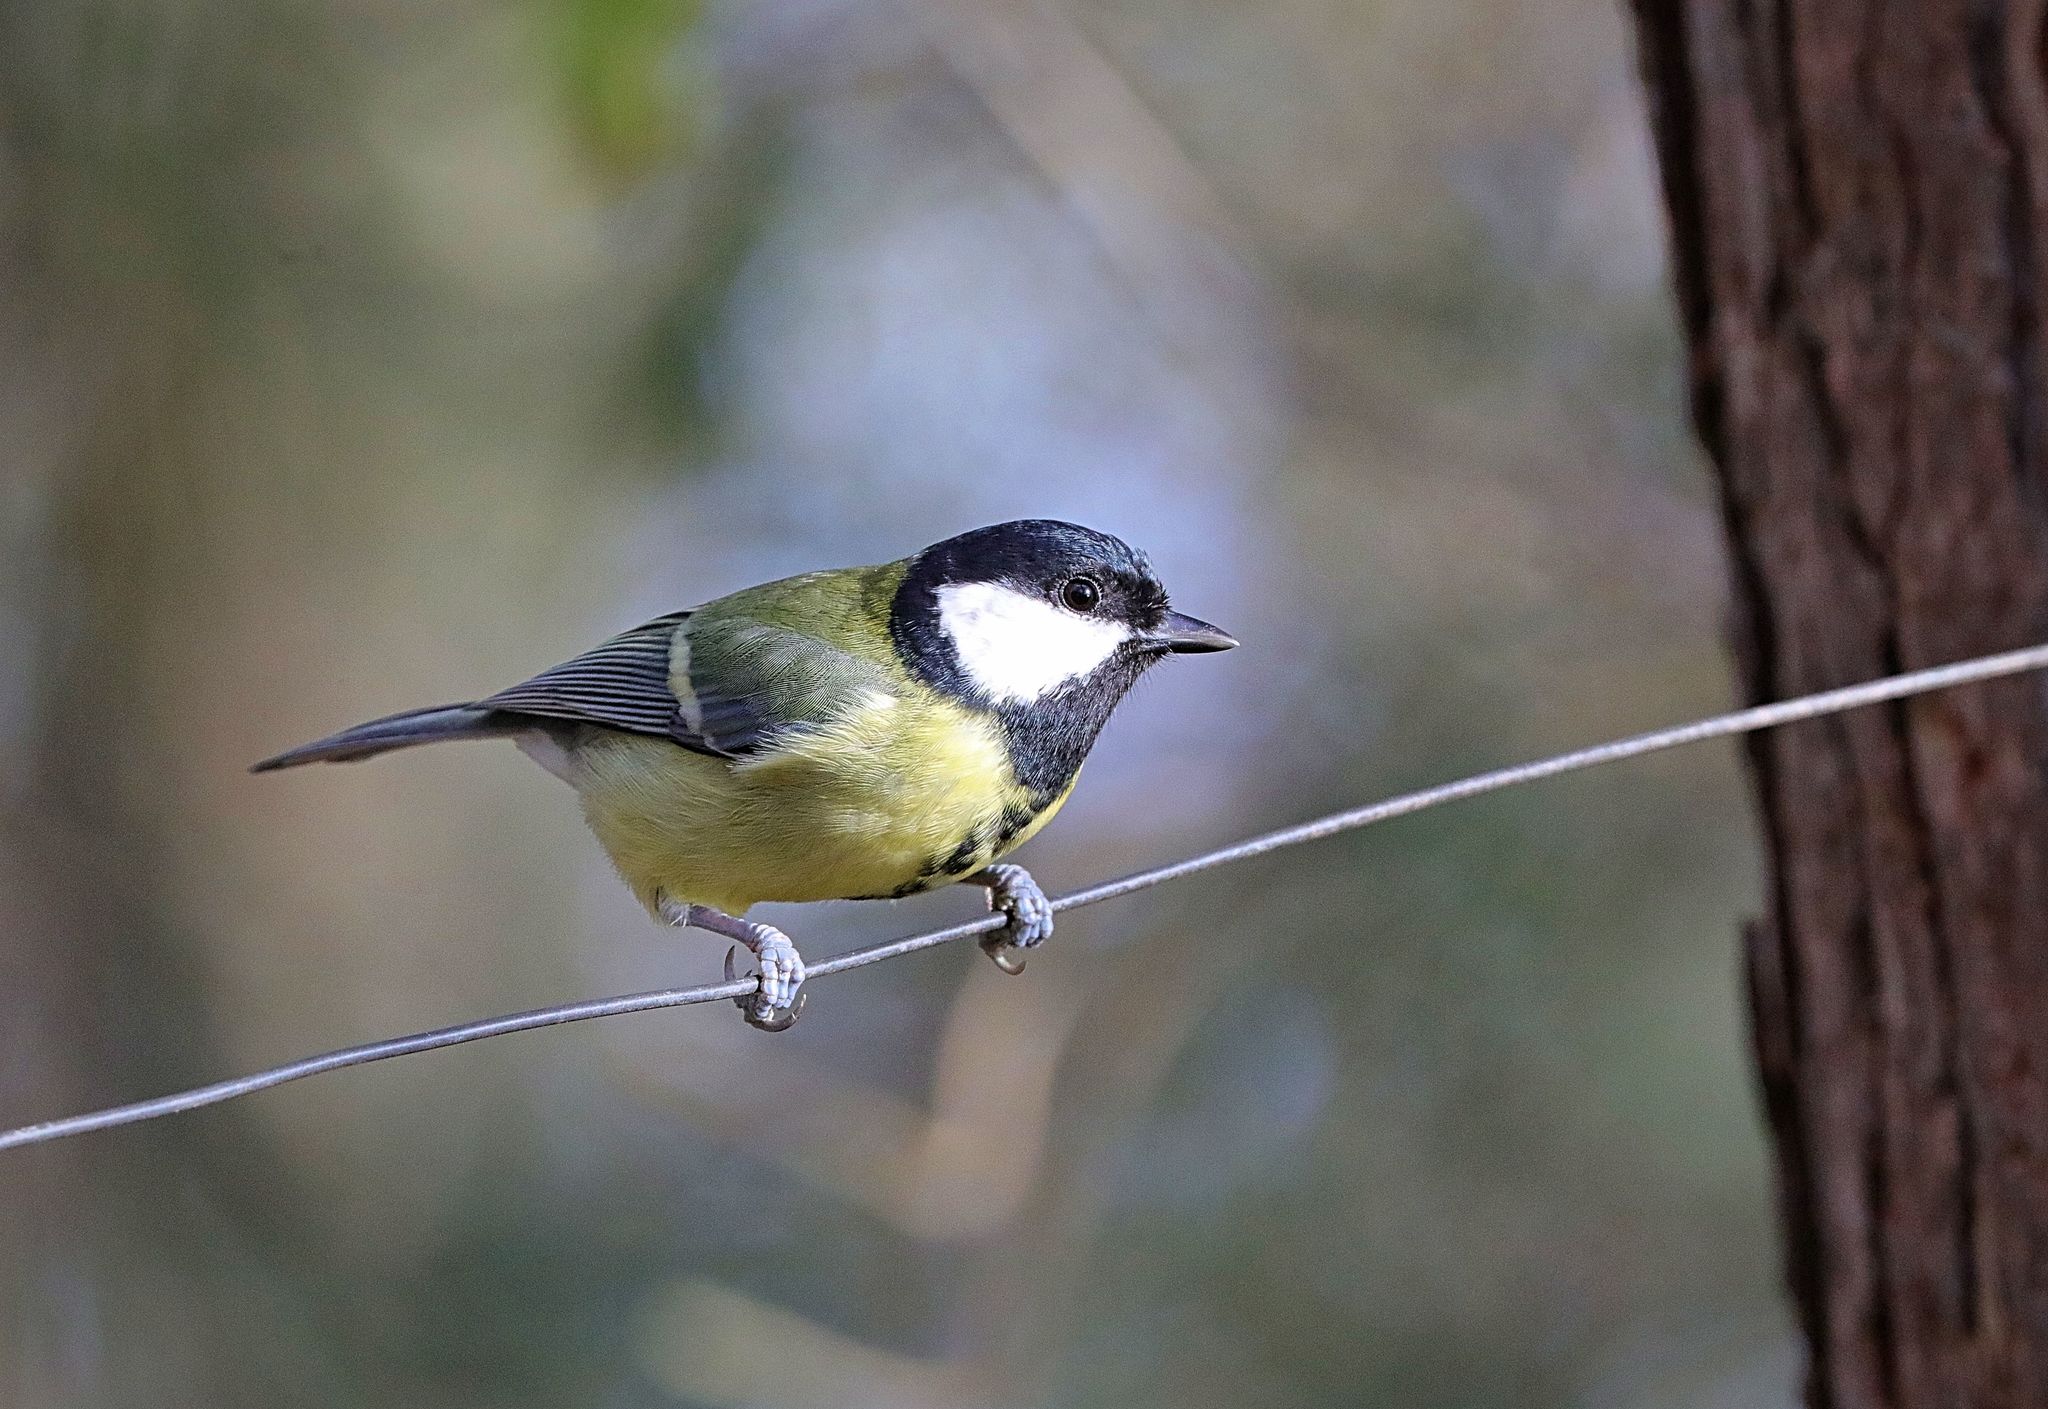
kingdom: Animalia
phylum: Chordata
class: Aves
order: Passeriformes
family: Paridae
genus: Parus
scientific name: Parus major
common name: Great tit
